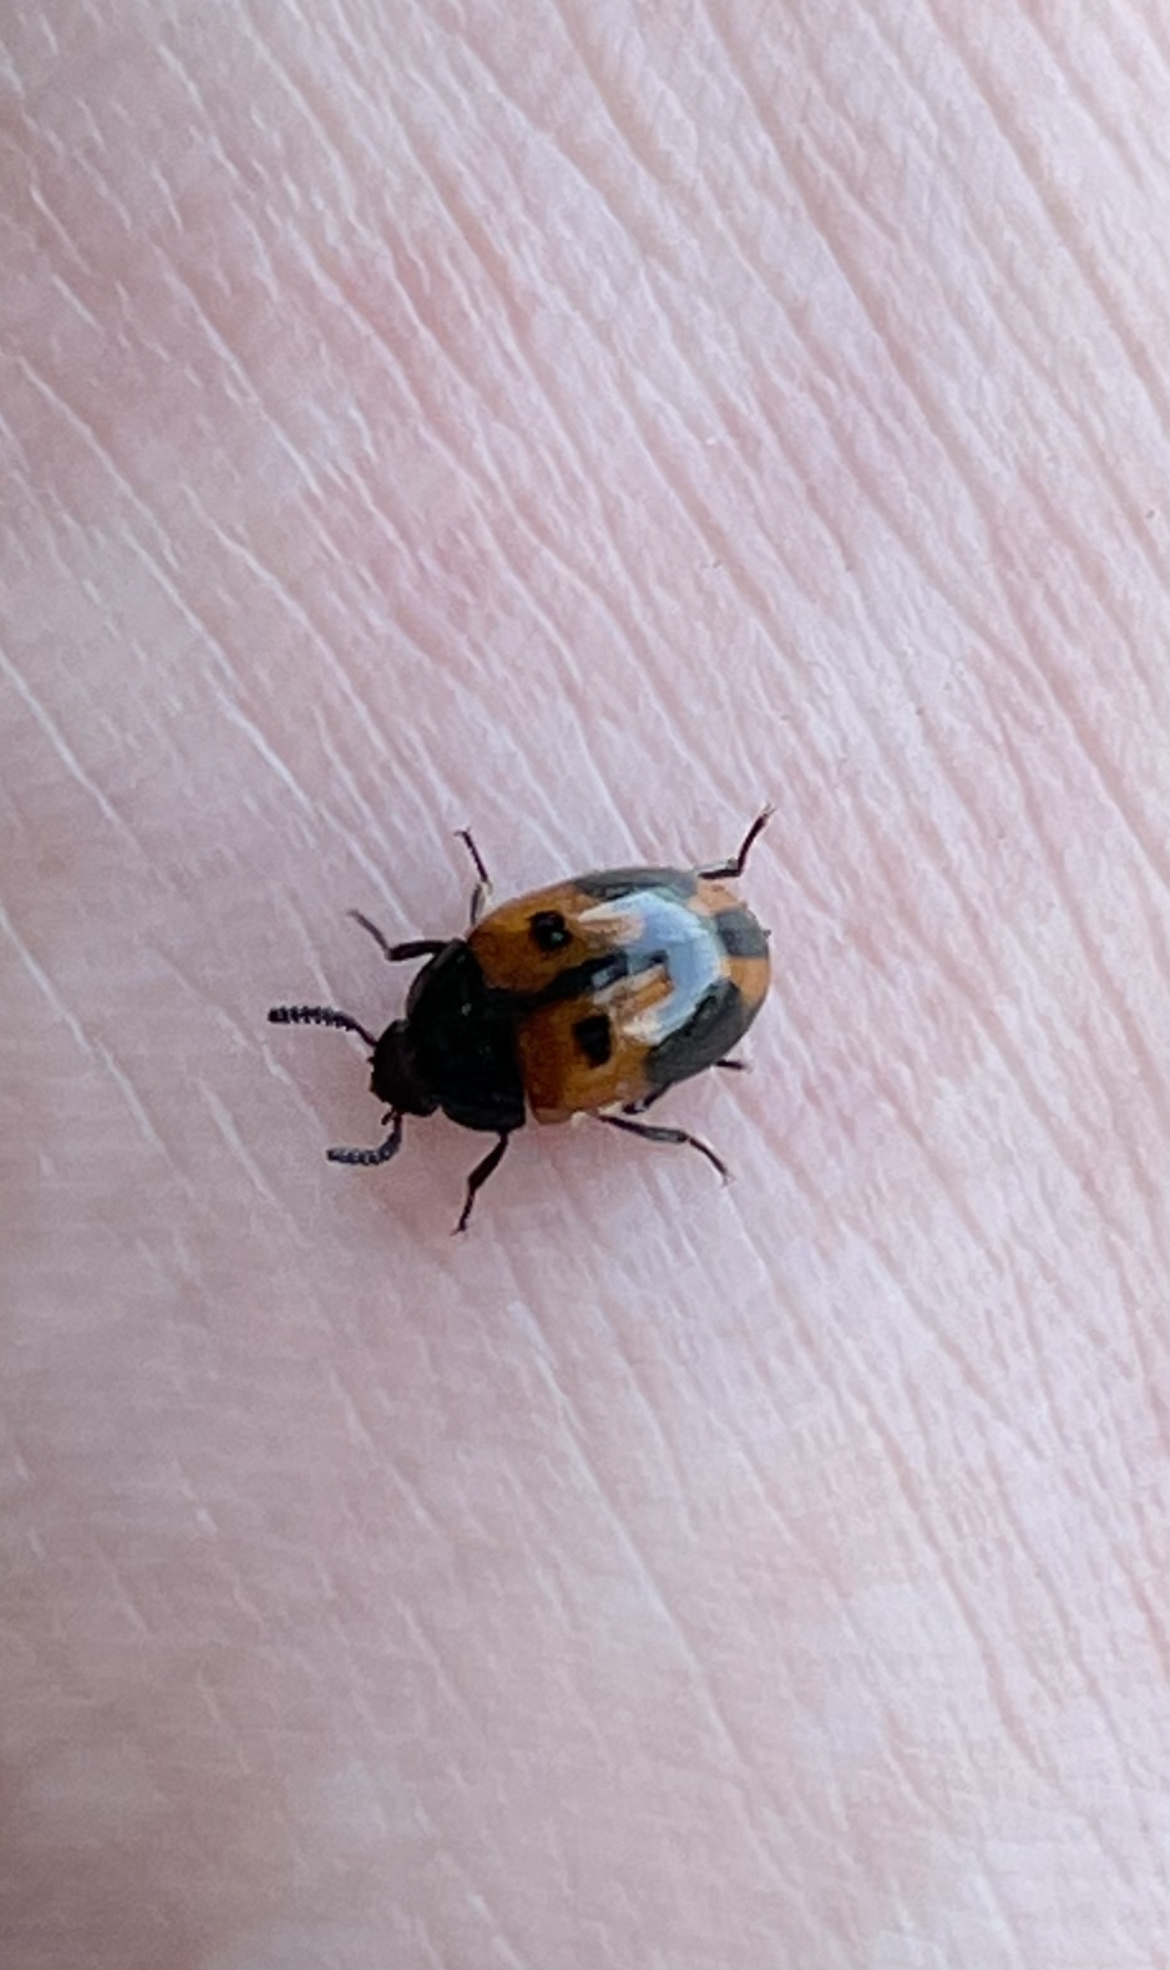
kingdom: Animalia
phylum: Arthropoda
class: Insecta
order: Coleoptera
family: Tenebrionidae
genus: Diaperis
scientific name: Diaperis maculata
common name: Darkling beetle
